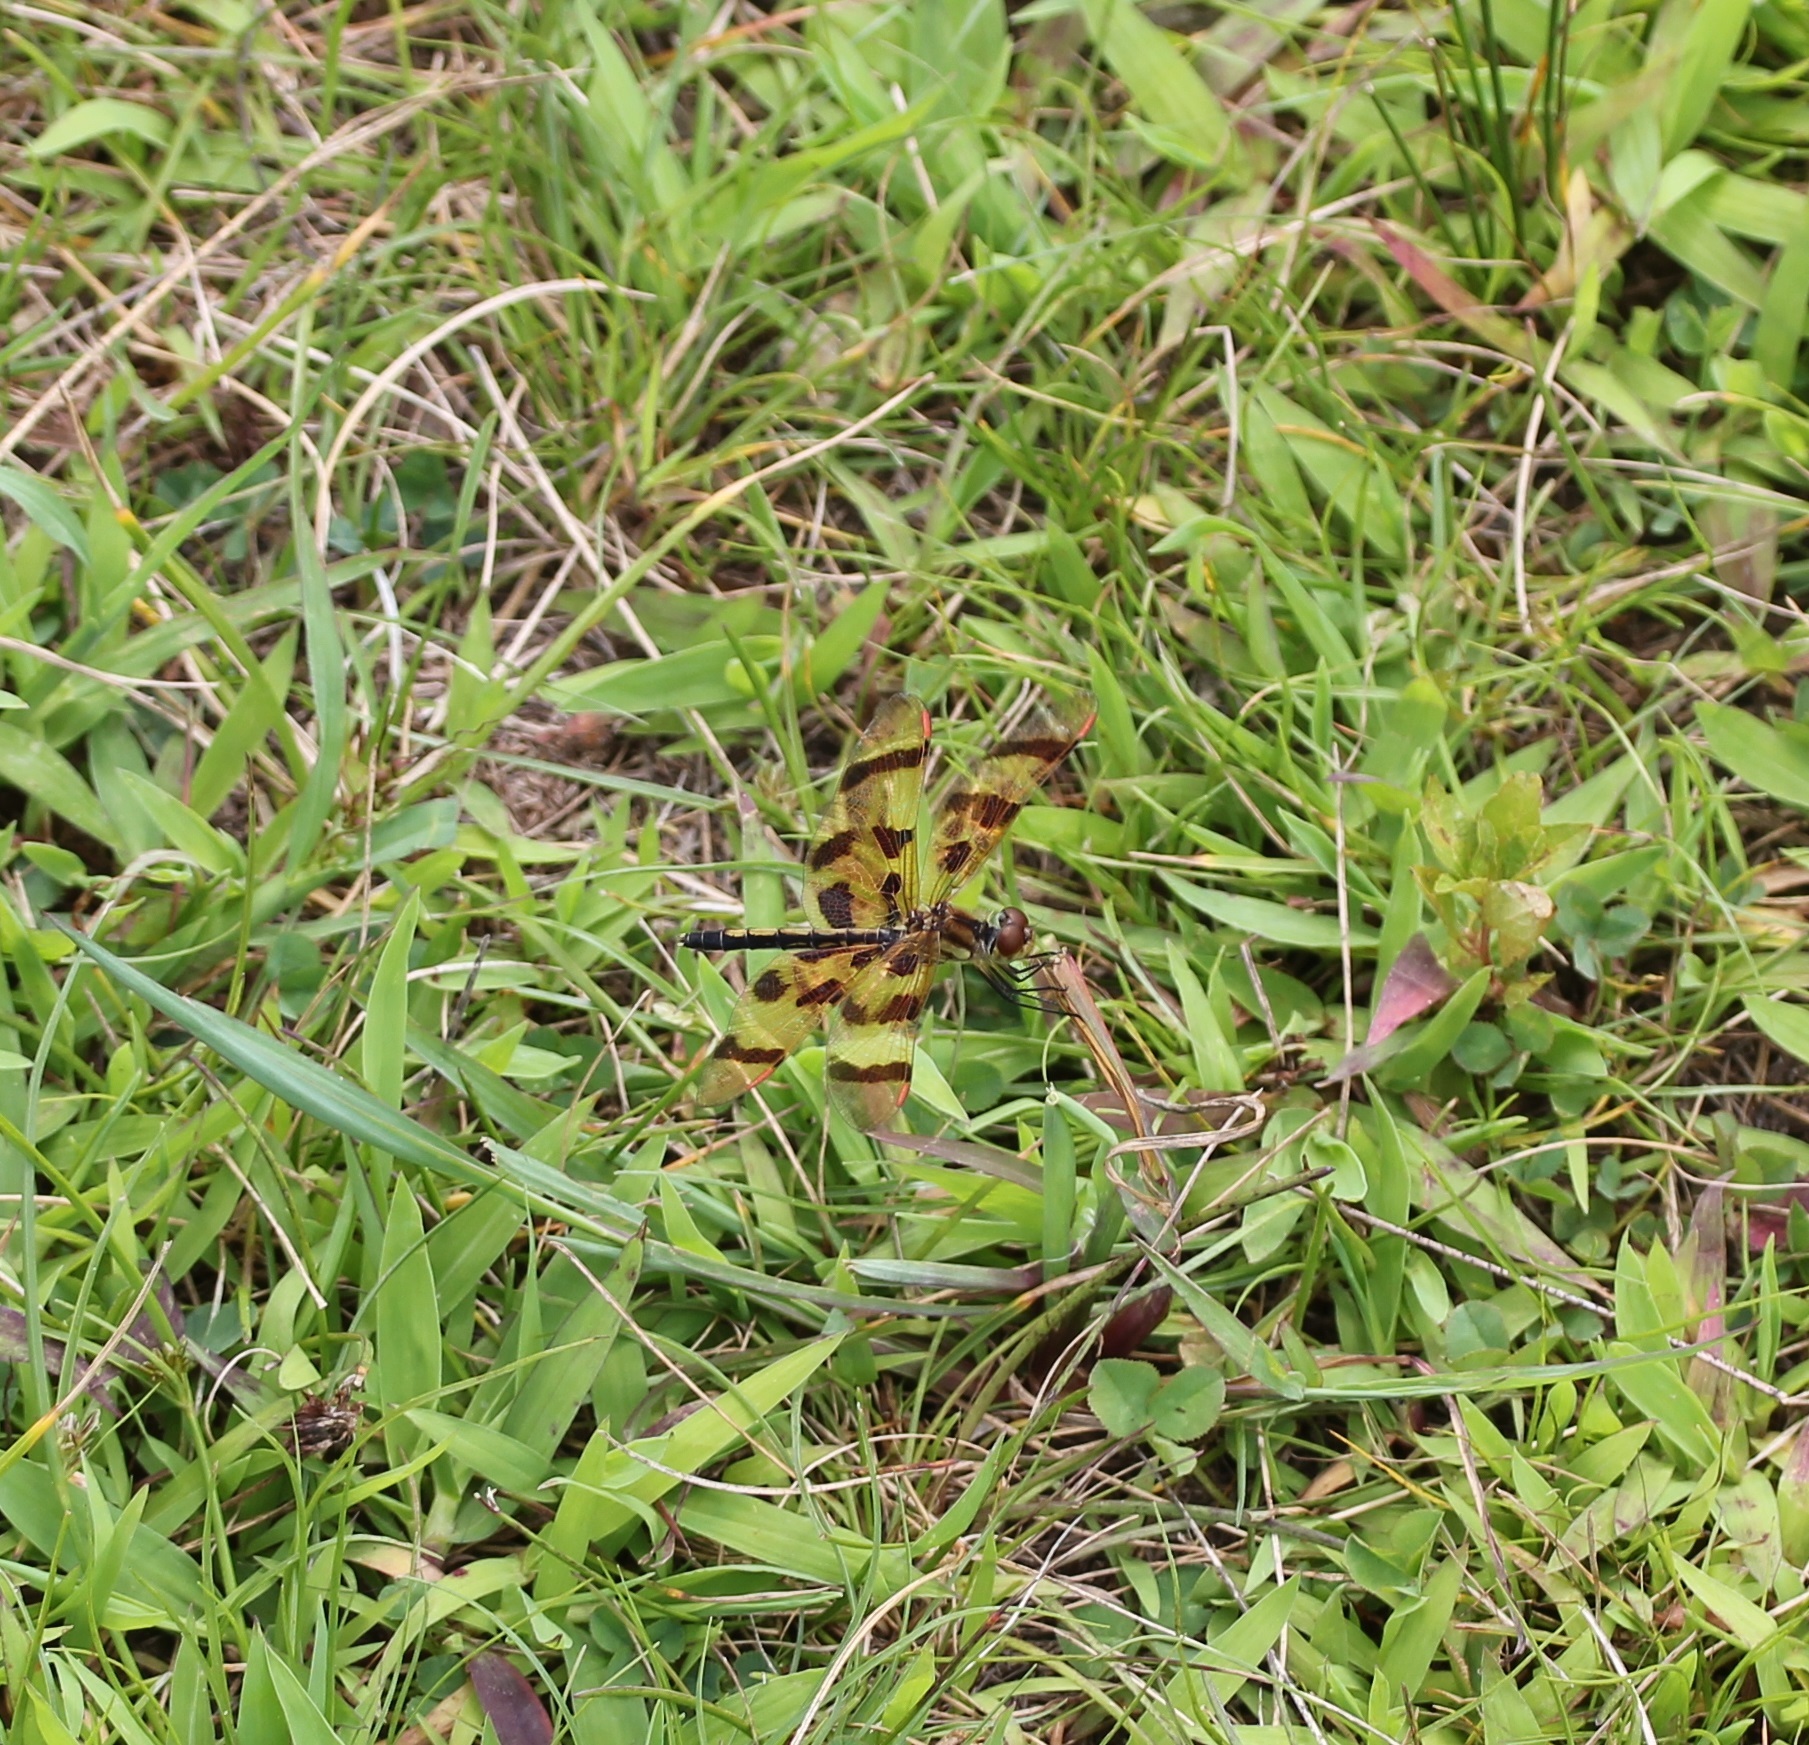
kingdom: Animalia
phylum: Arthropoda
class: Insecta
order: Odonata
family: Libellulidae
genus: Celithemis
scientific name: Celithemis eponina
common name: Halloween pennant
